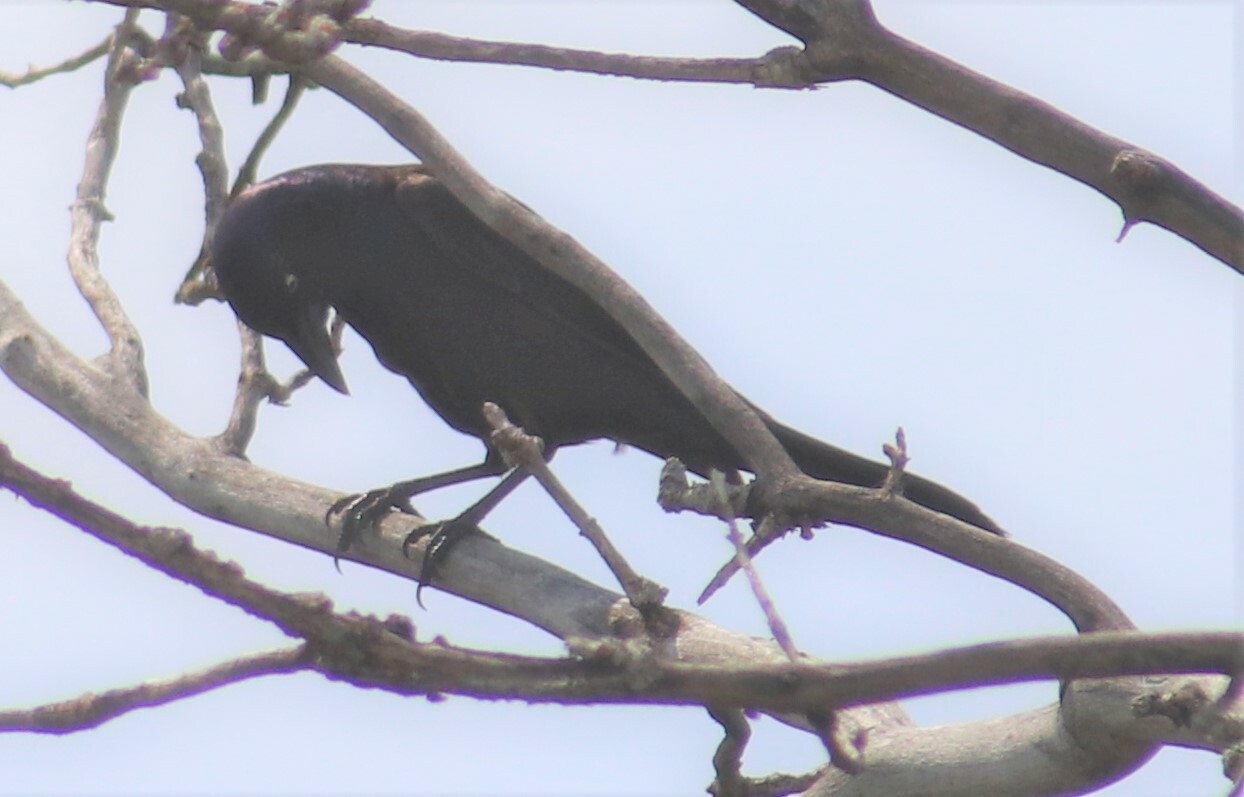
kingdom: Animalia
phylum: Chordata
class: Aves
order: Passeriformes
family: Icteridae
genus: Quiscalus
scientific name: Quiscalus quiscula
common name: Common grackle
